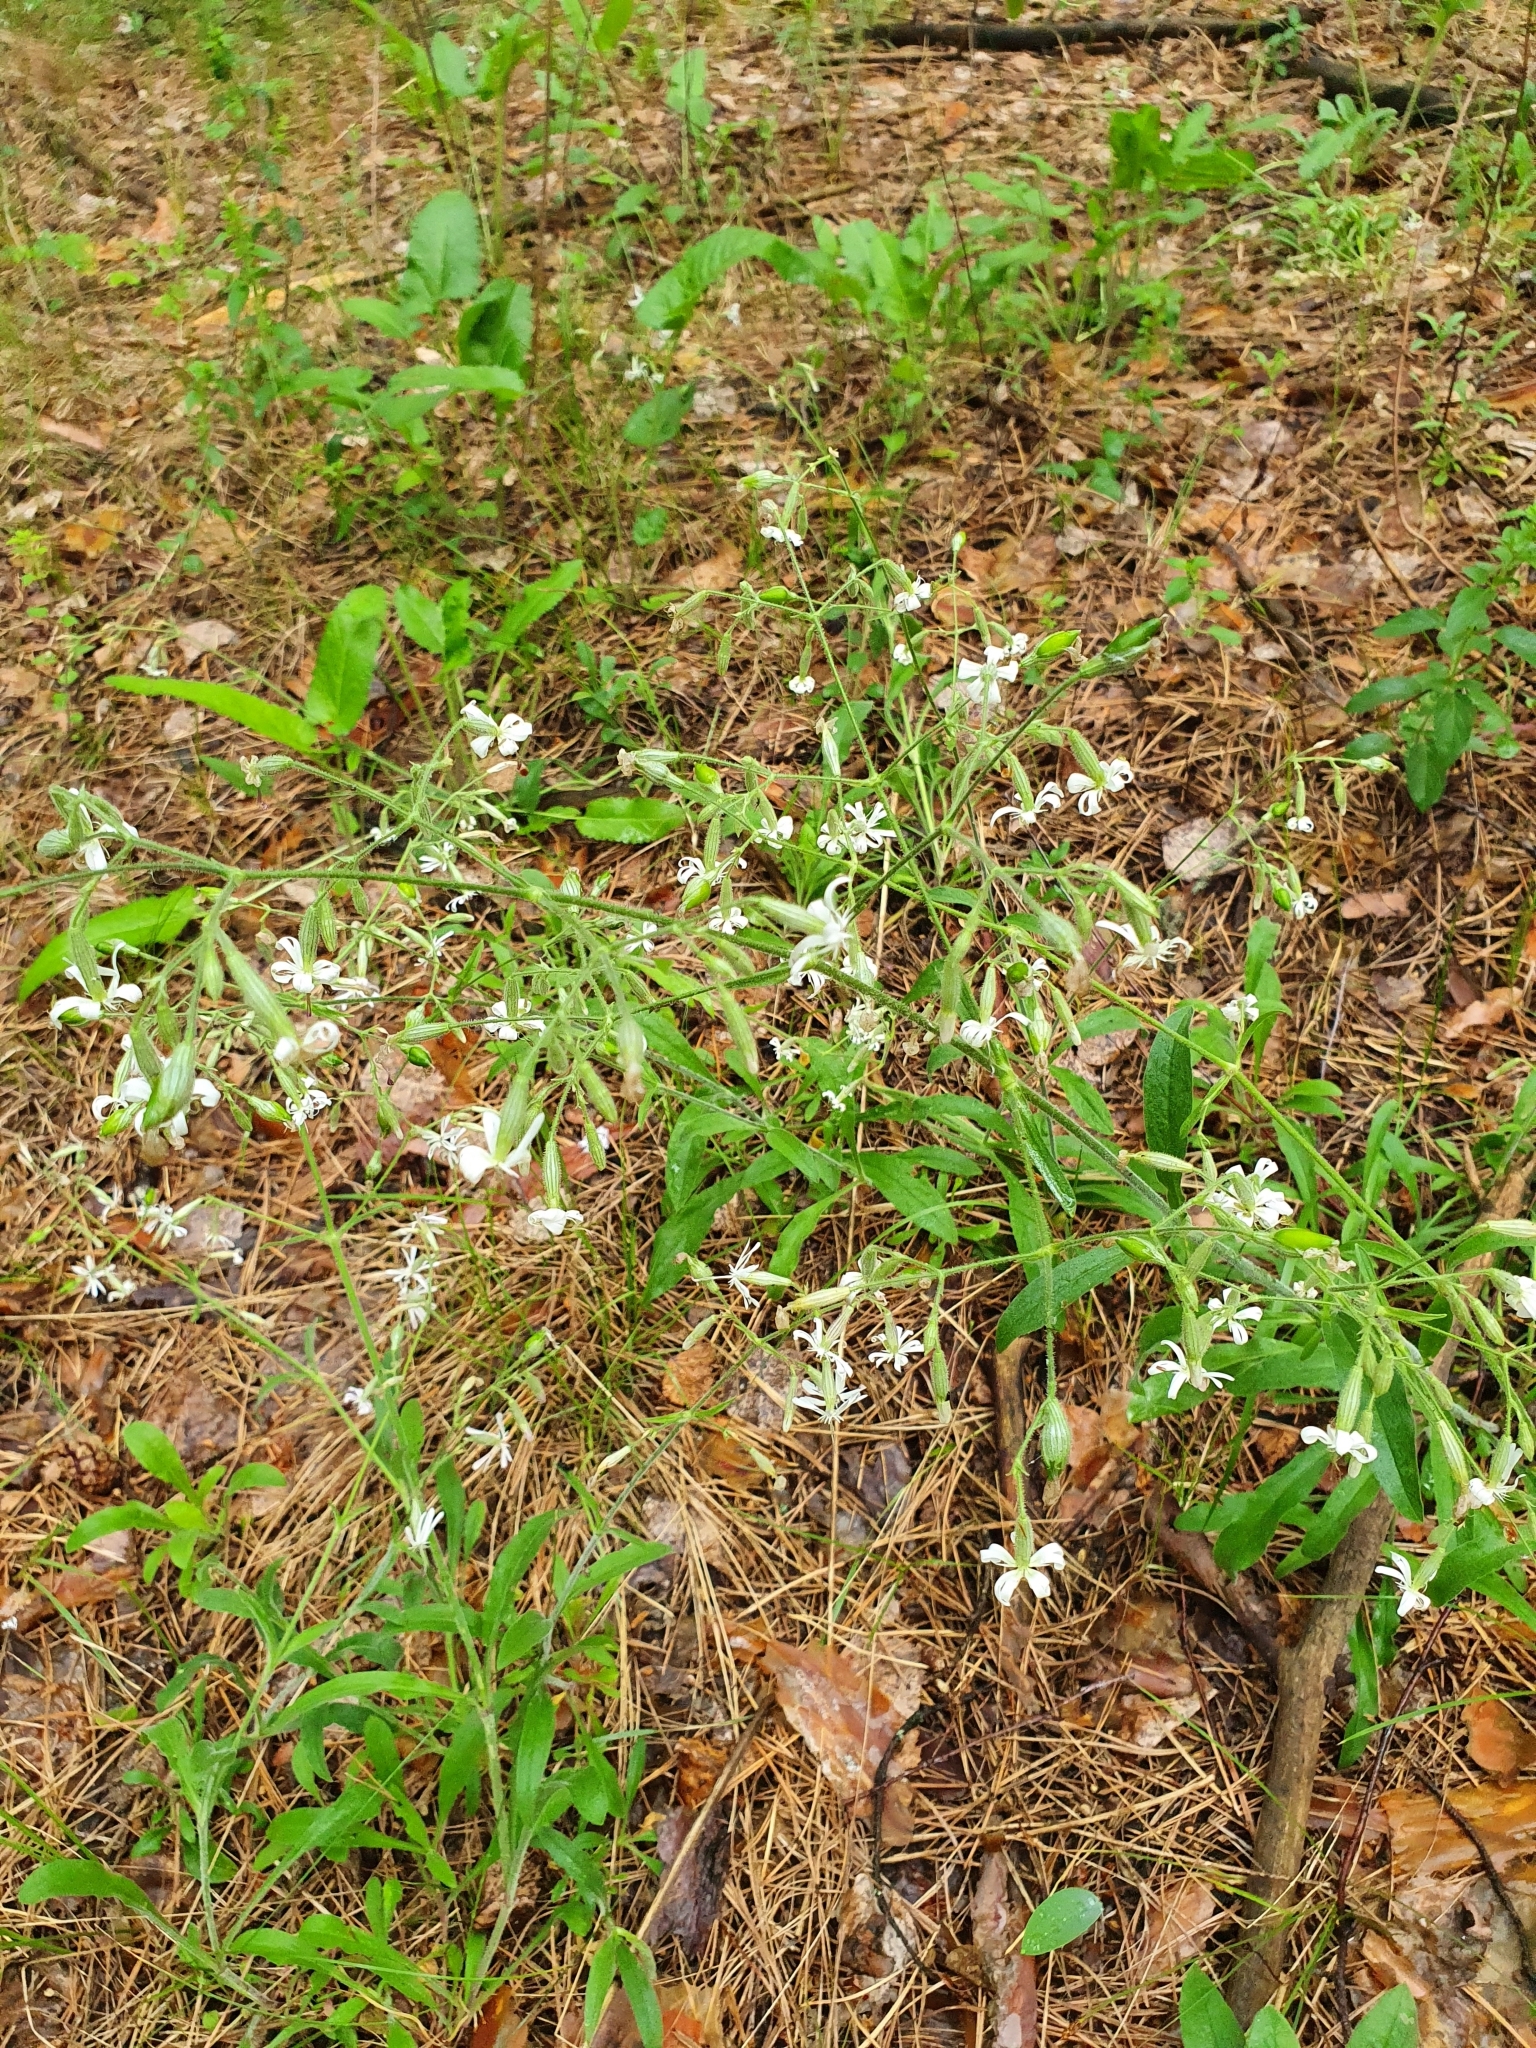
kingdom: Plantae
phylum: Tracheophyta
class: Magnoliopsida
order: Caryophyllales
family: Caryophyllaceae
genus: Silene
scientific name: Silene nutans
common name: Nottingham catchfly
